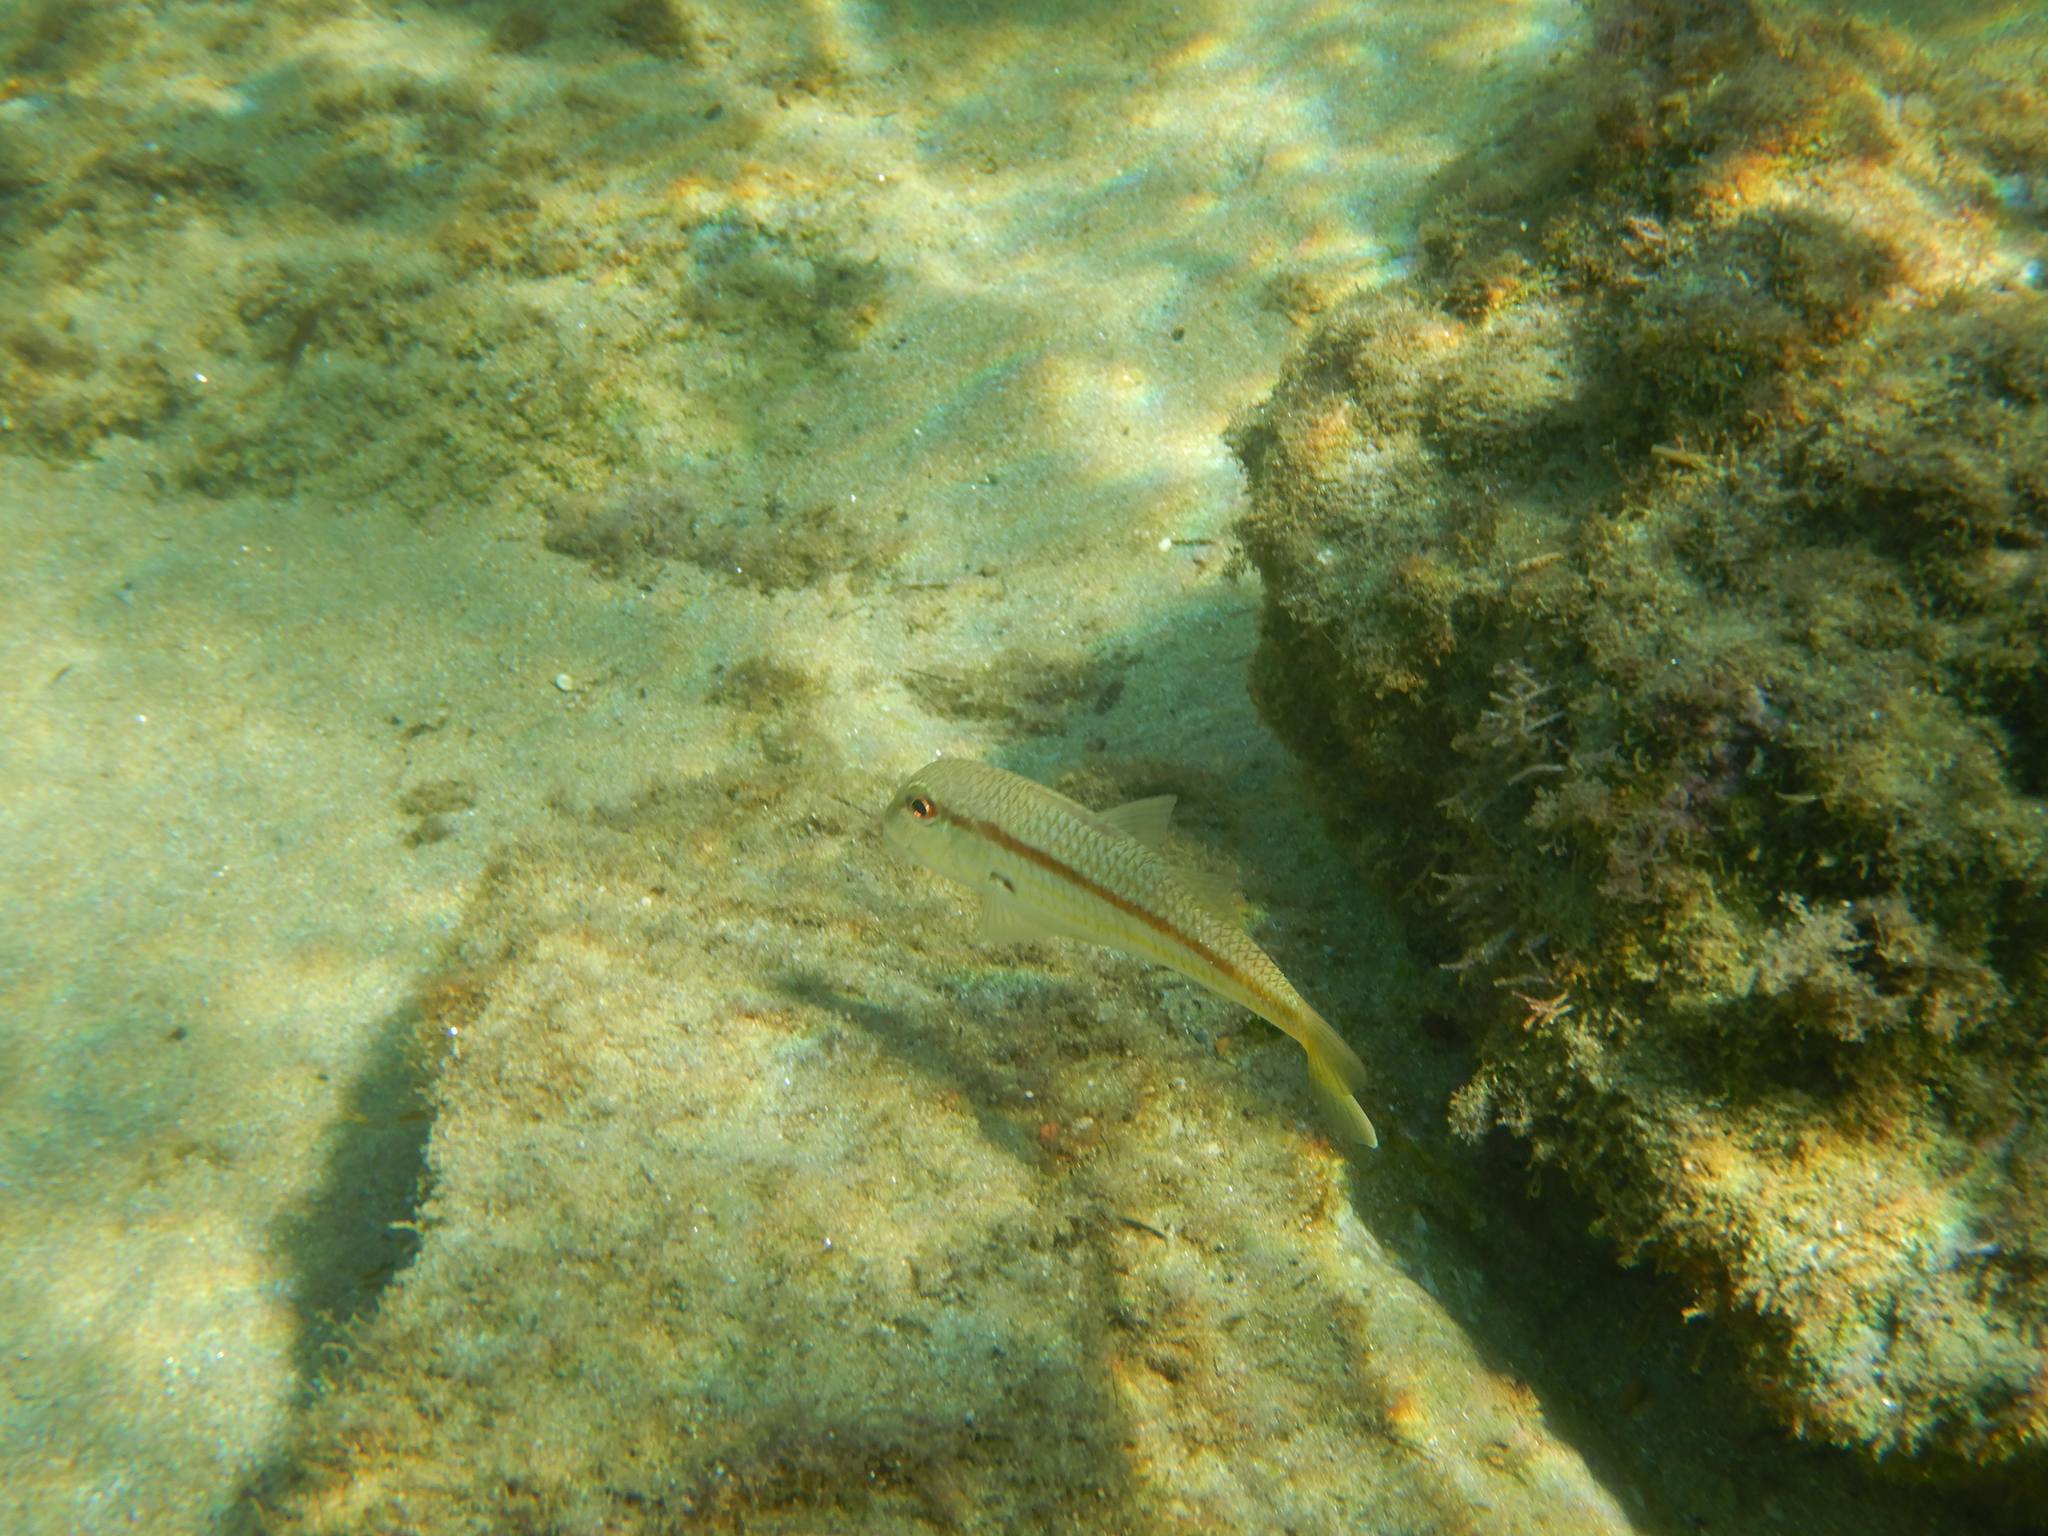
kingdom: Animalia
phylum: Chordata
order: Perciformes
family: Mullidae
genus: Mullus
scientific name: Mullus barbatus
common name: Blunt-snouted mullet
